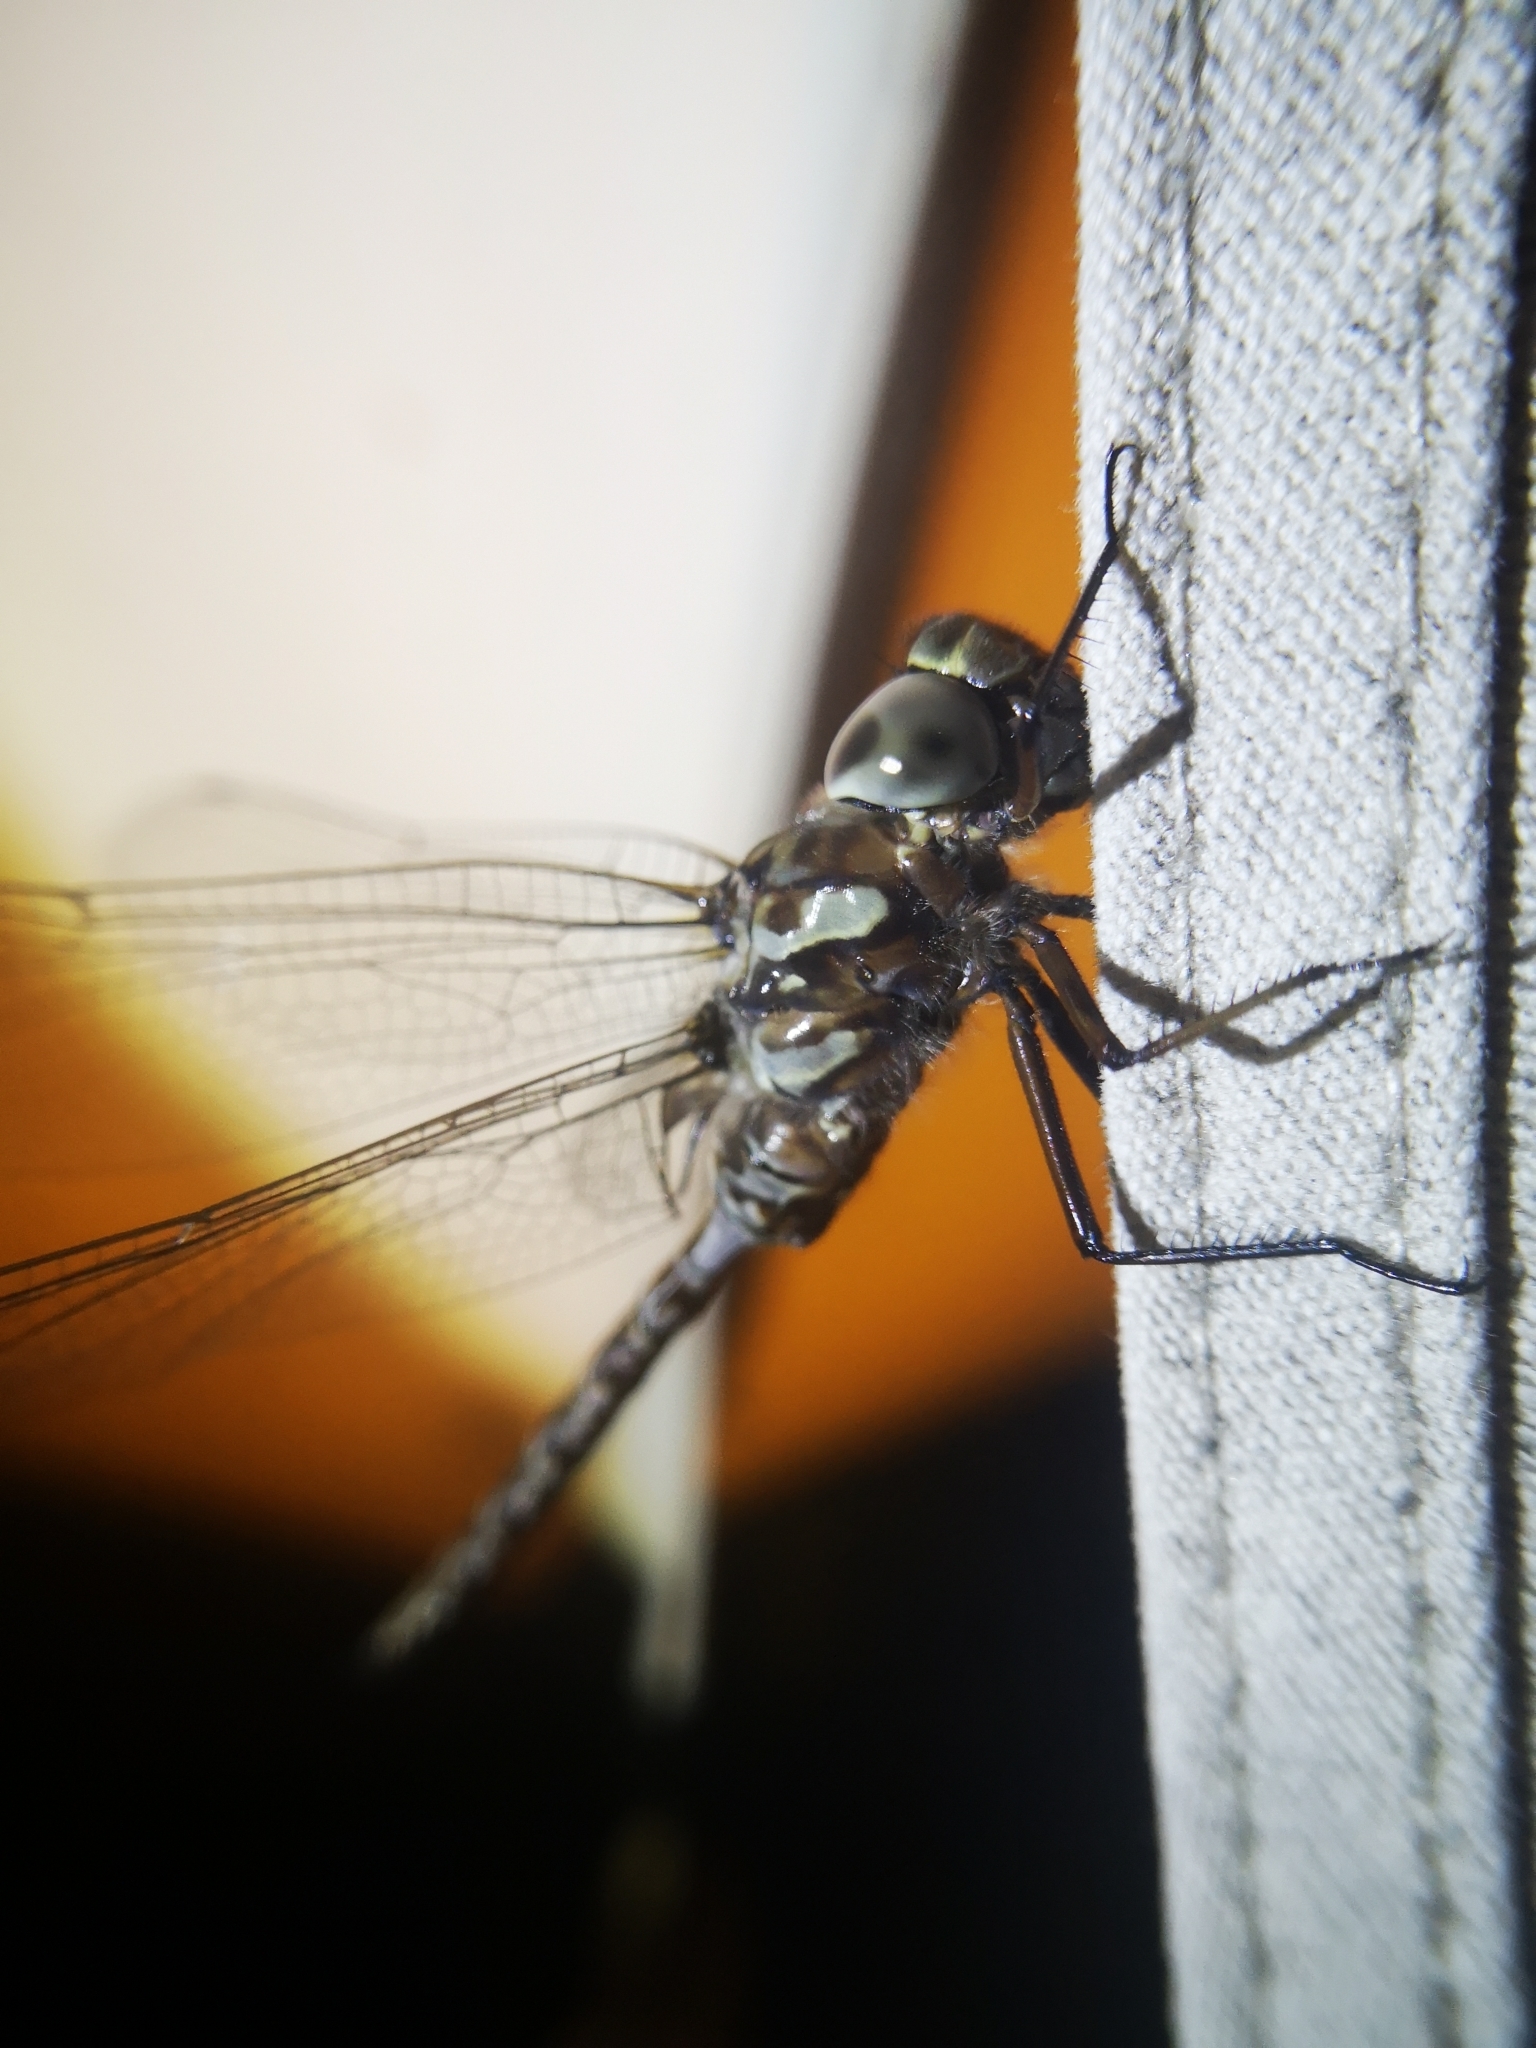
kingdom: Animalia
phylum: Arthropoda
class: Insecta
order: Odonata
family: Aeshnidae
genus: Aeshna
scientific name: Aeshna canadensis
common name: Canada darner
